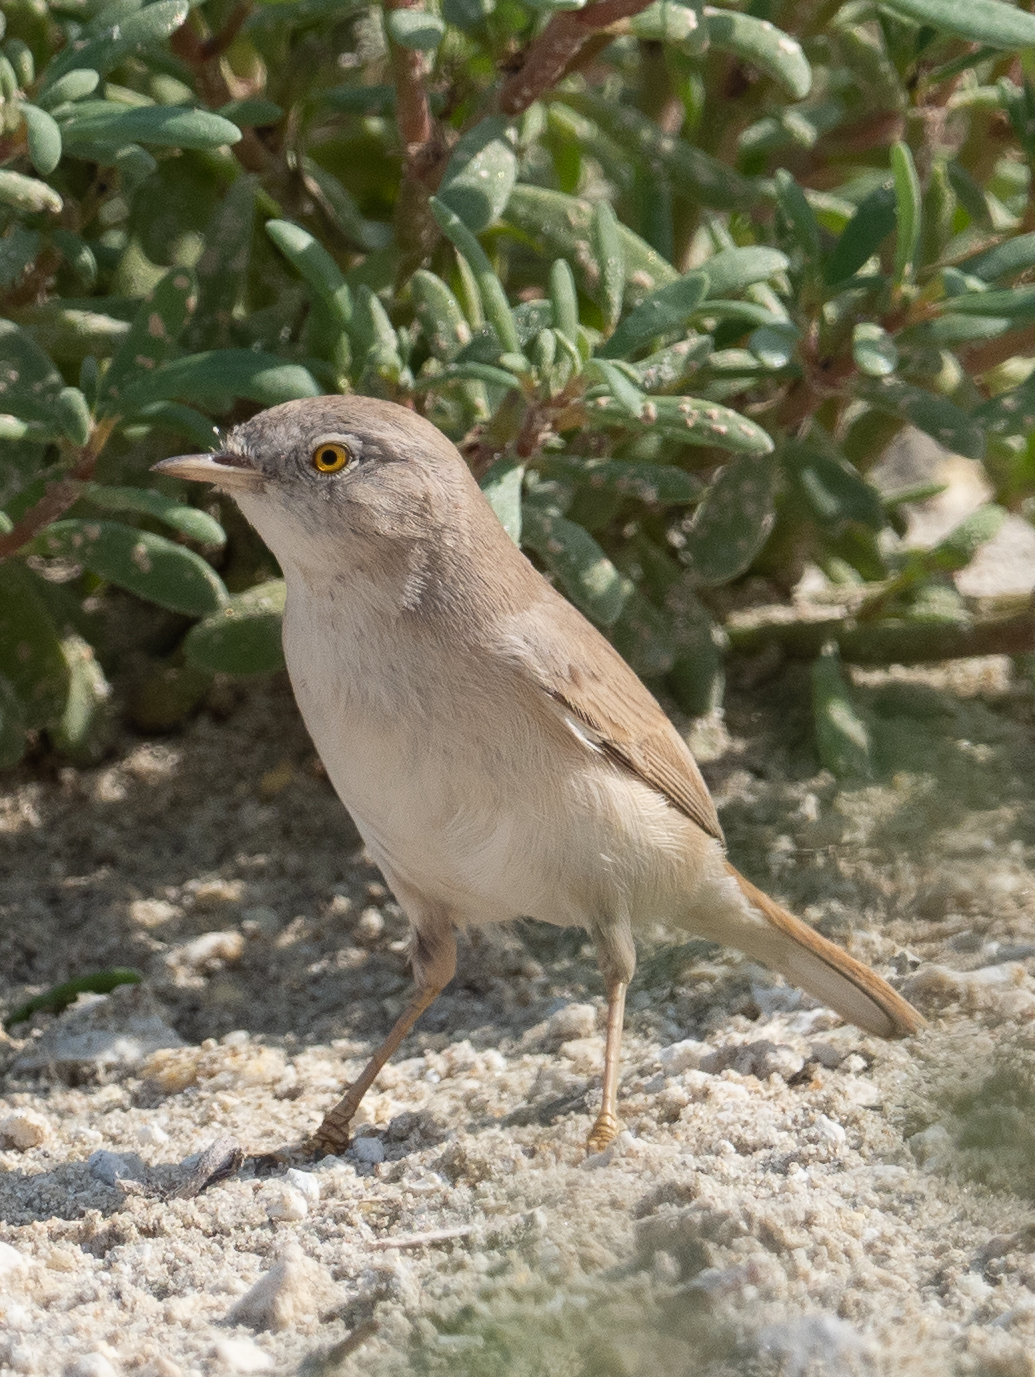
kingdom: Animalia
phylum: Chordata
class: Aves
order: Passeriformes
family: Sylviidae
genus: Sylvia
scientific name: Sylvia nana
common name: Asian desert warbler
